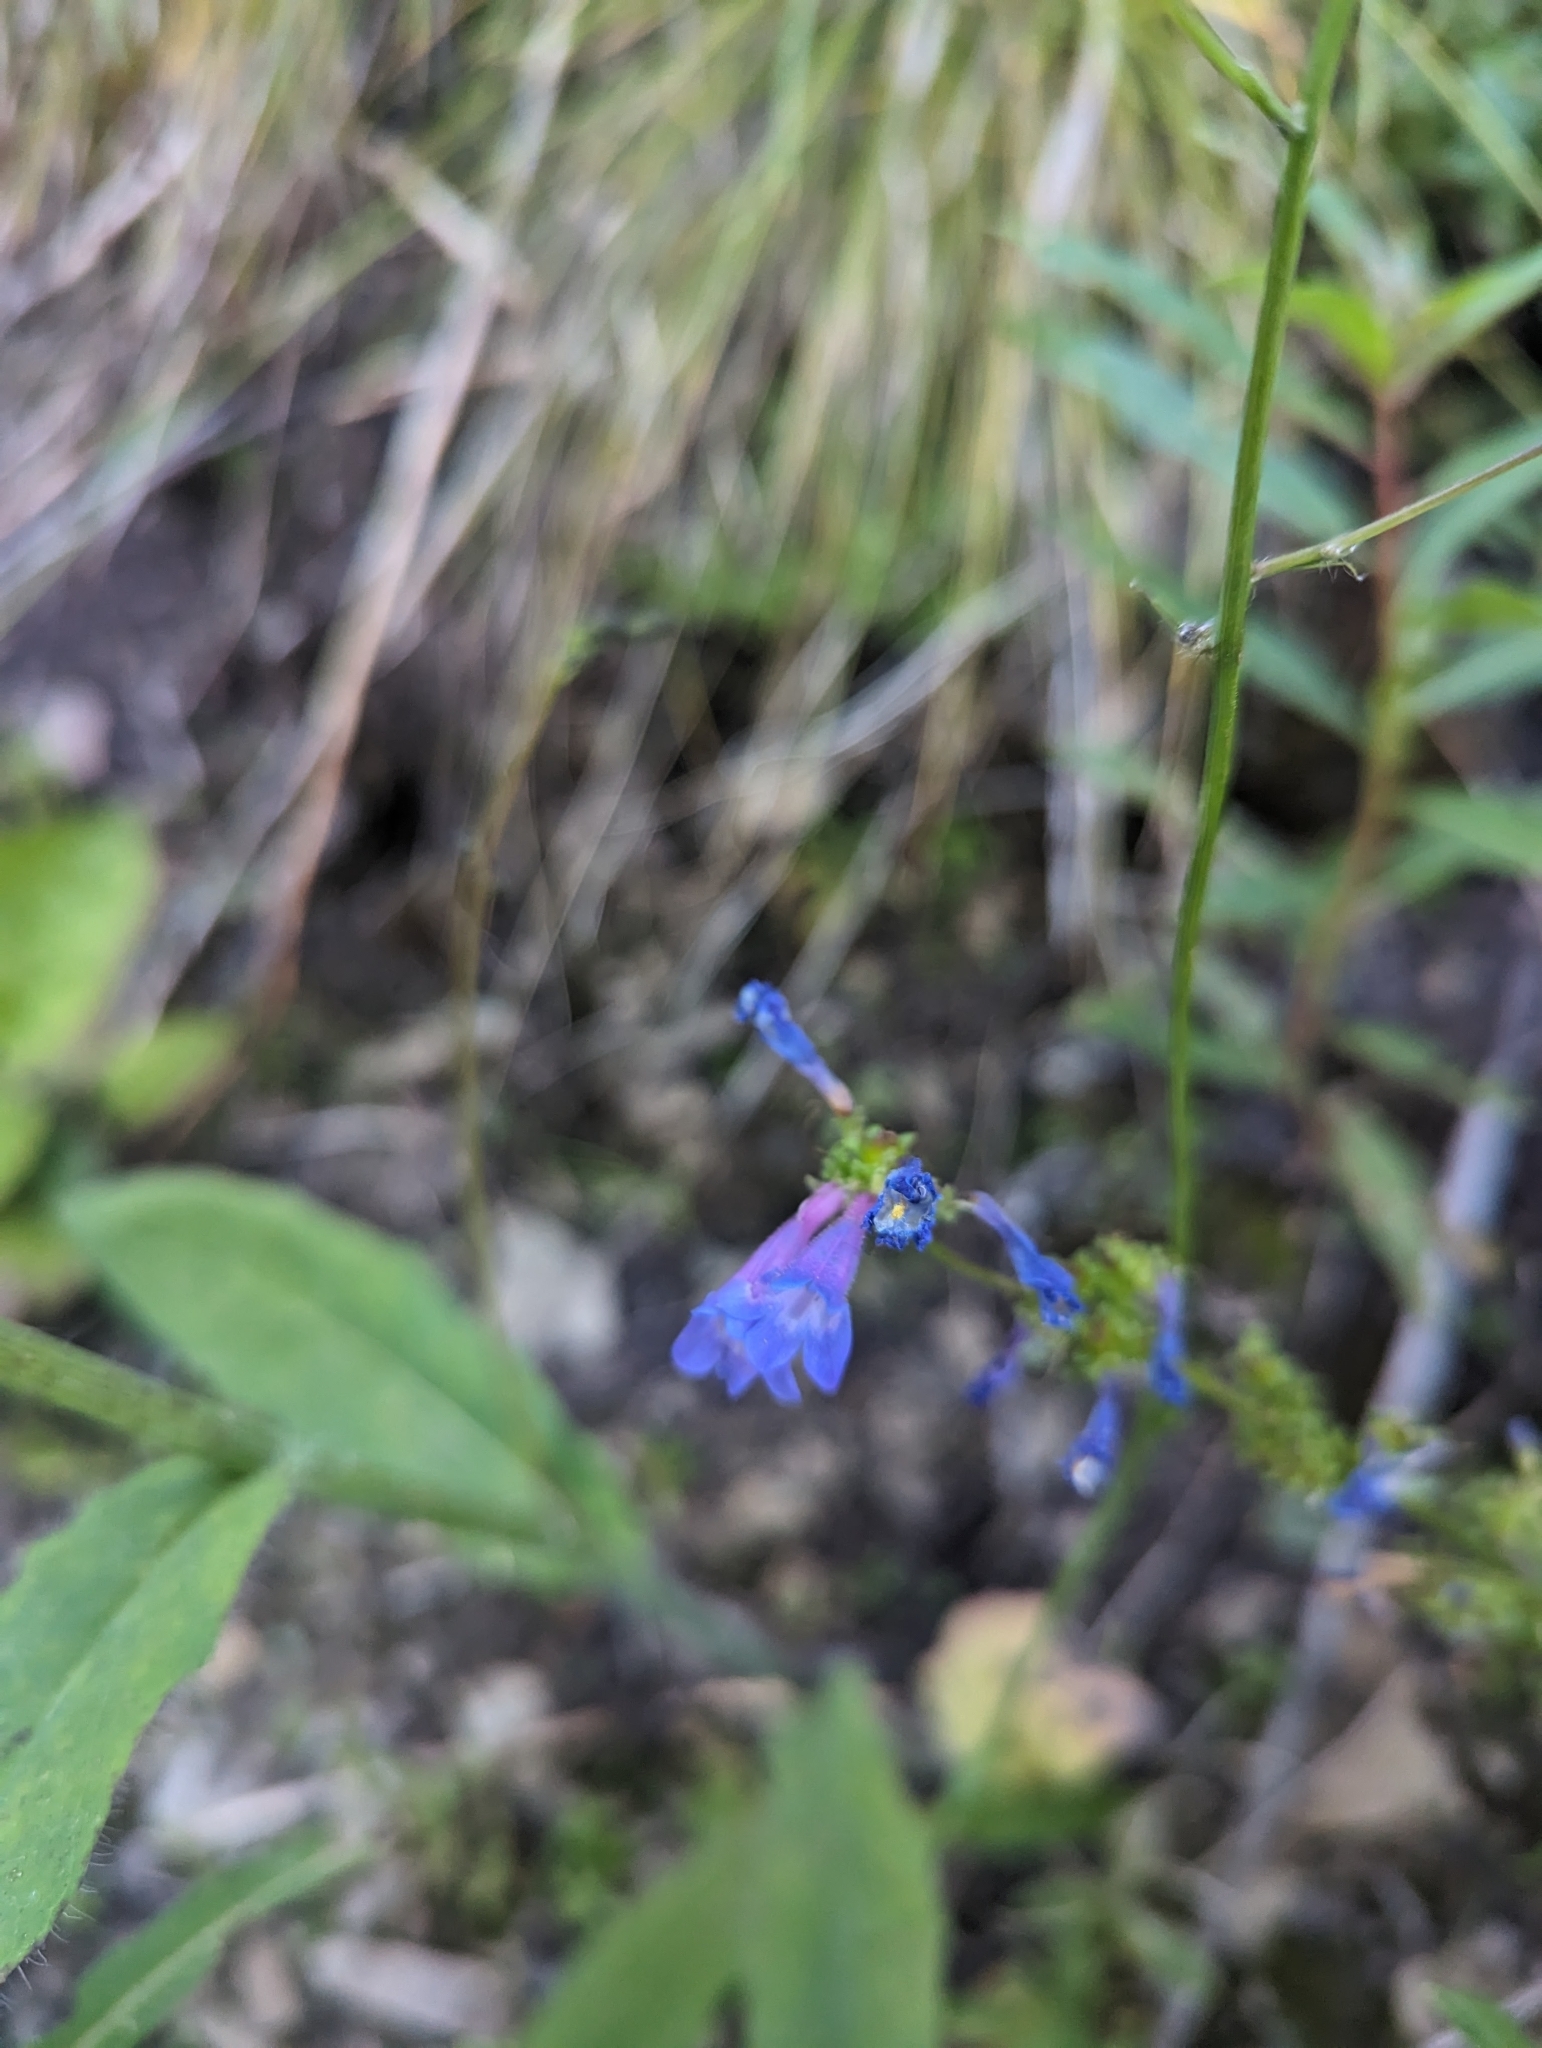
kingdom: Plantae
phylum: Tracheophyta
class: Magnoliopsida
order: Lamiales
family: Plantaginaceae
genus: Penstemon
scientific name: Penstemon albertinus
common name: Alberta beardtongue
